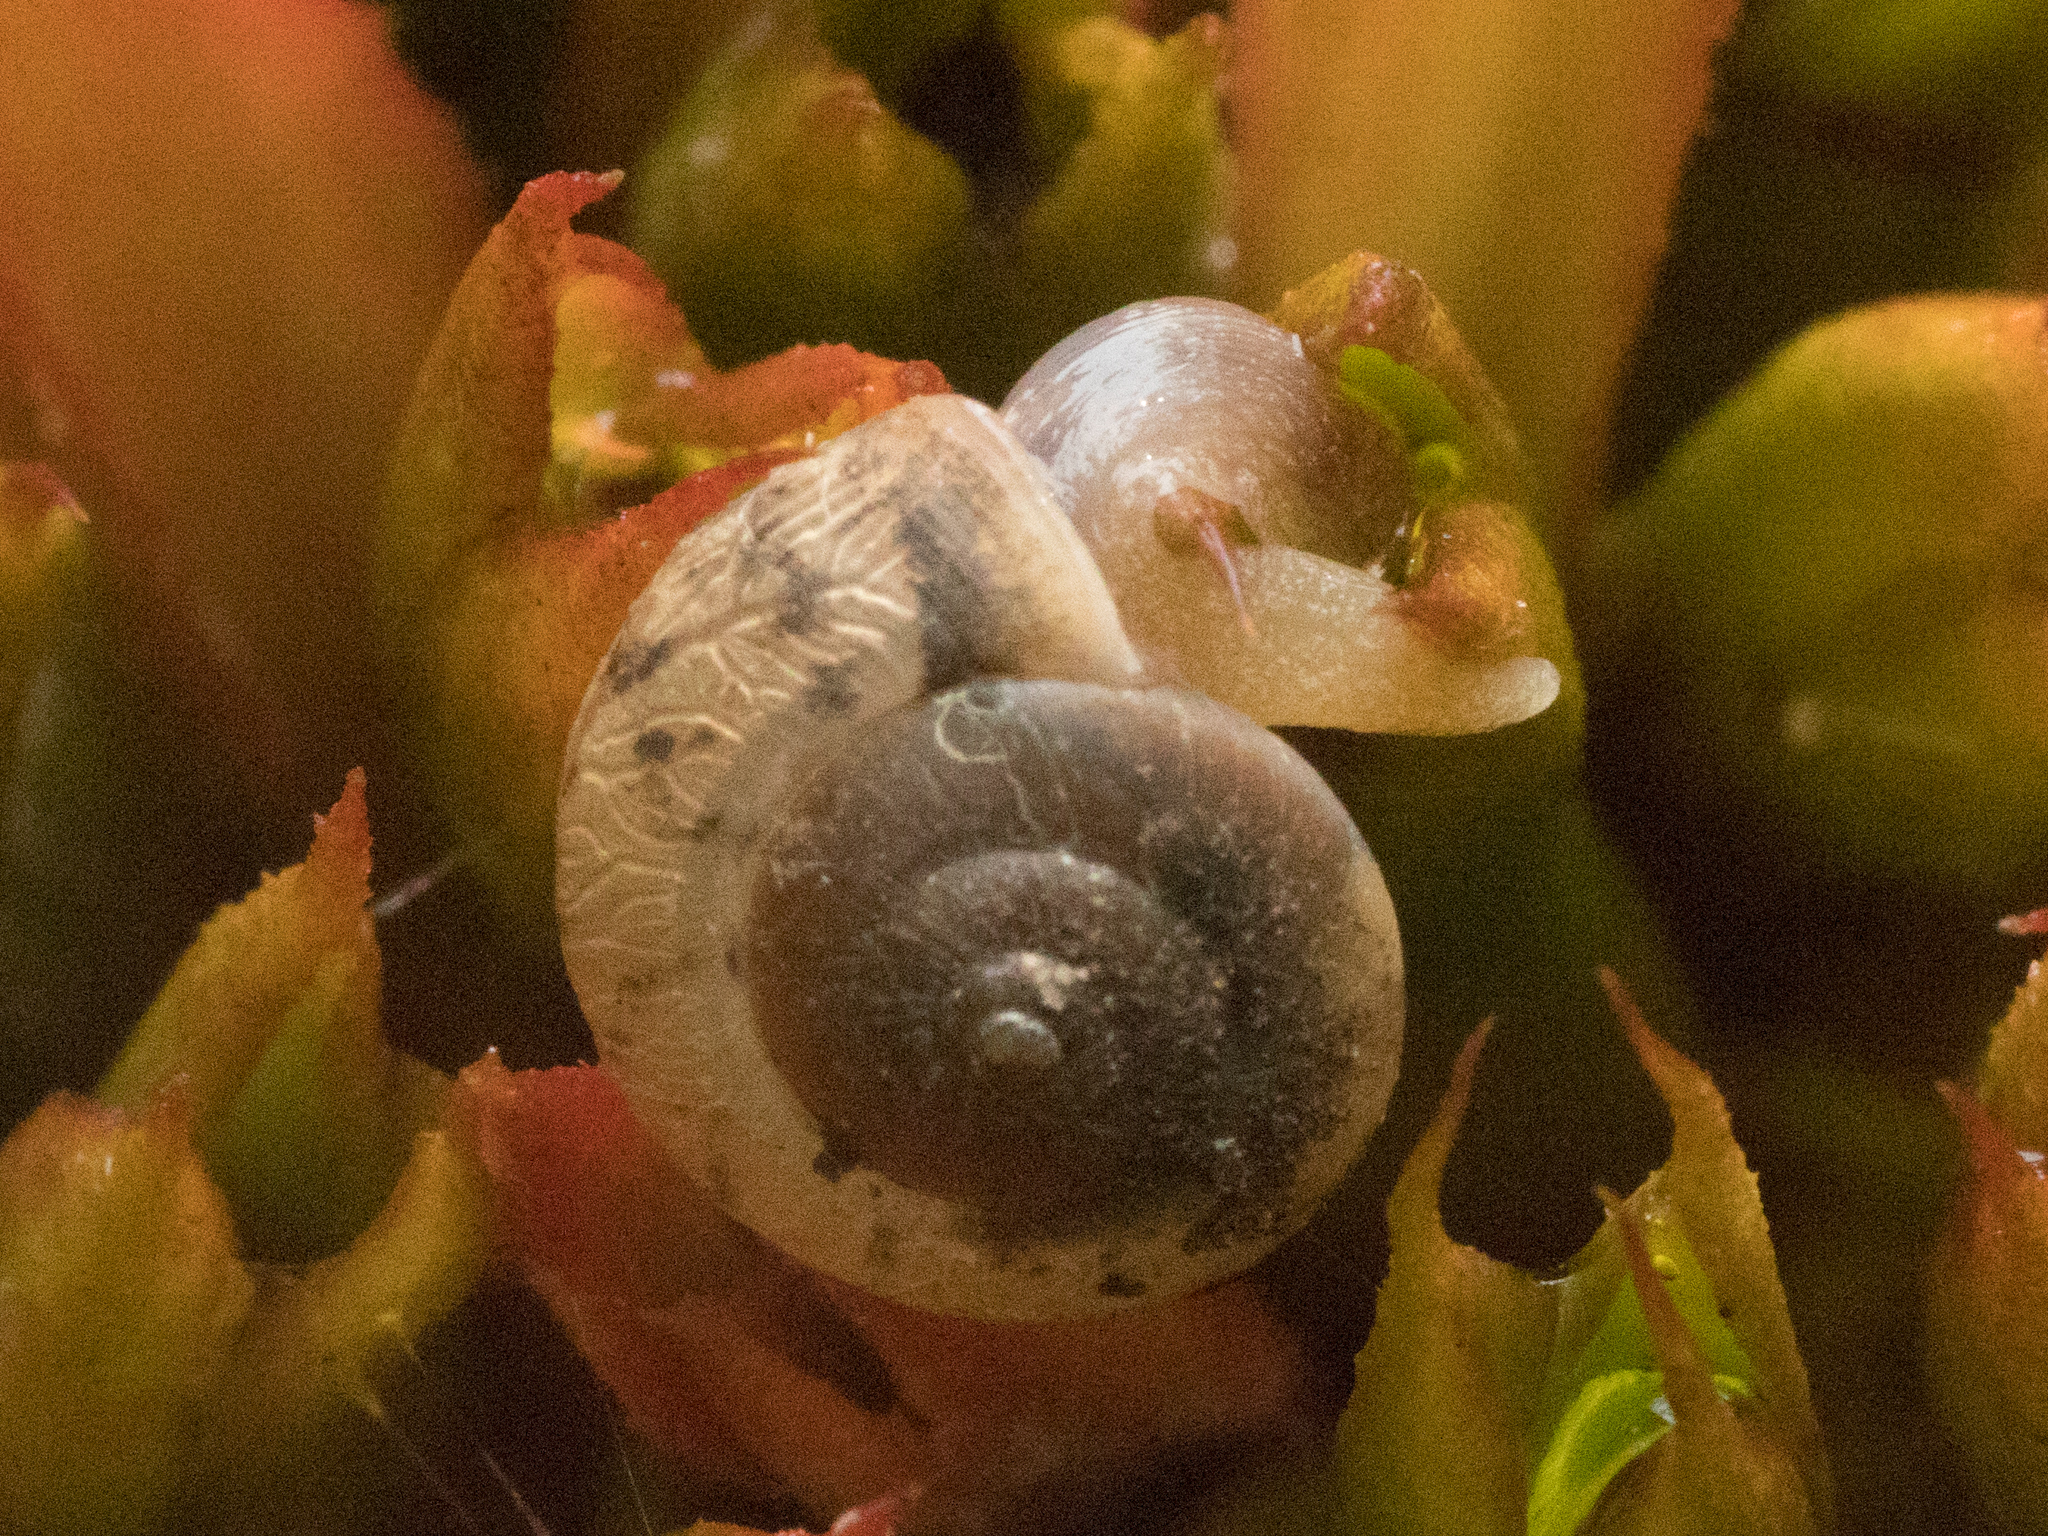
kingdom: Animalia
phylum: Mollusca
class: Gastropoda
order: Stylommatophora
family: Camaenidae
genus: Bradybaena
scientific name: Bradybaena similaris
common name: Asian trampsnail
